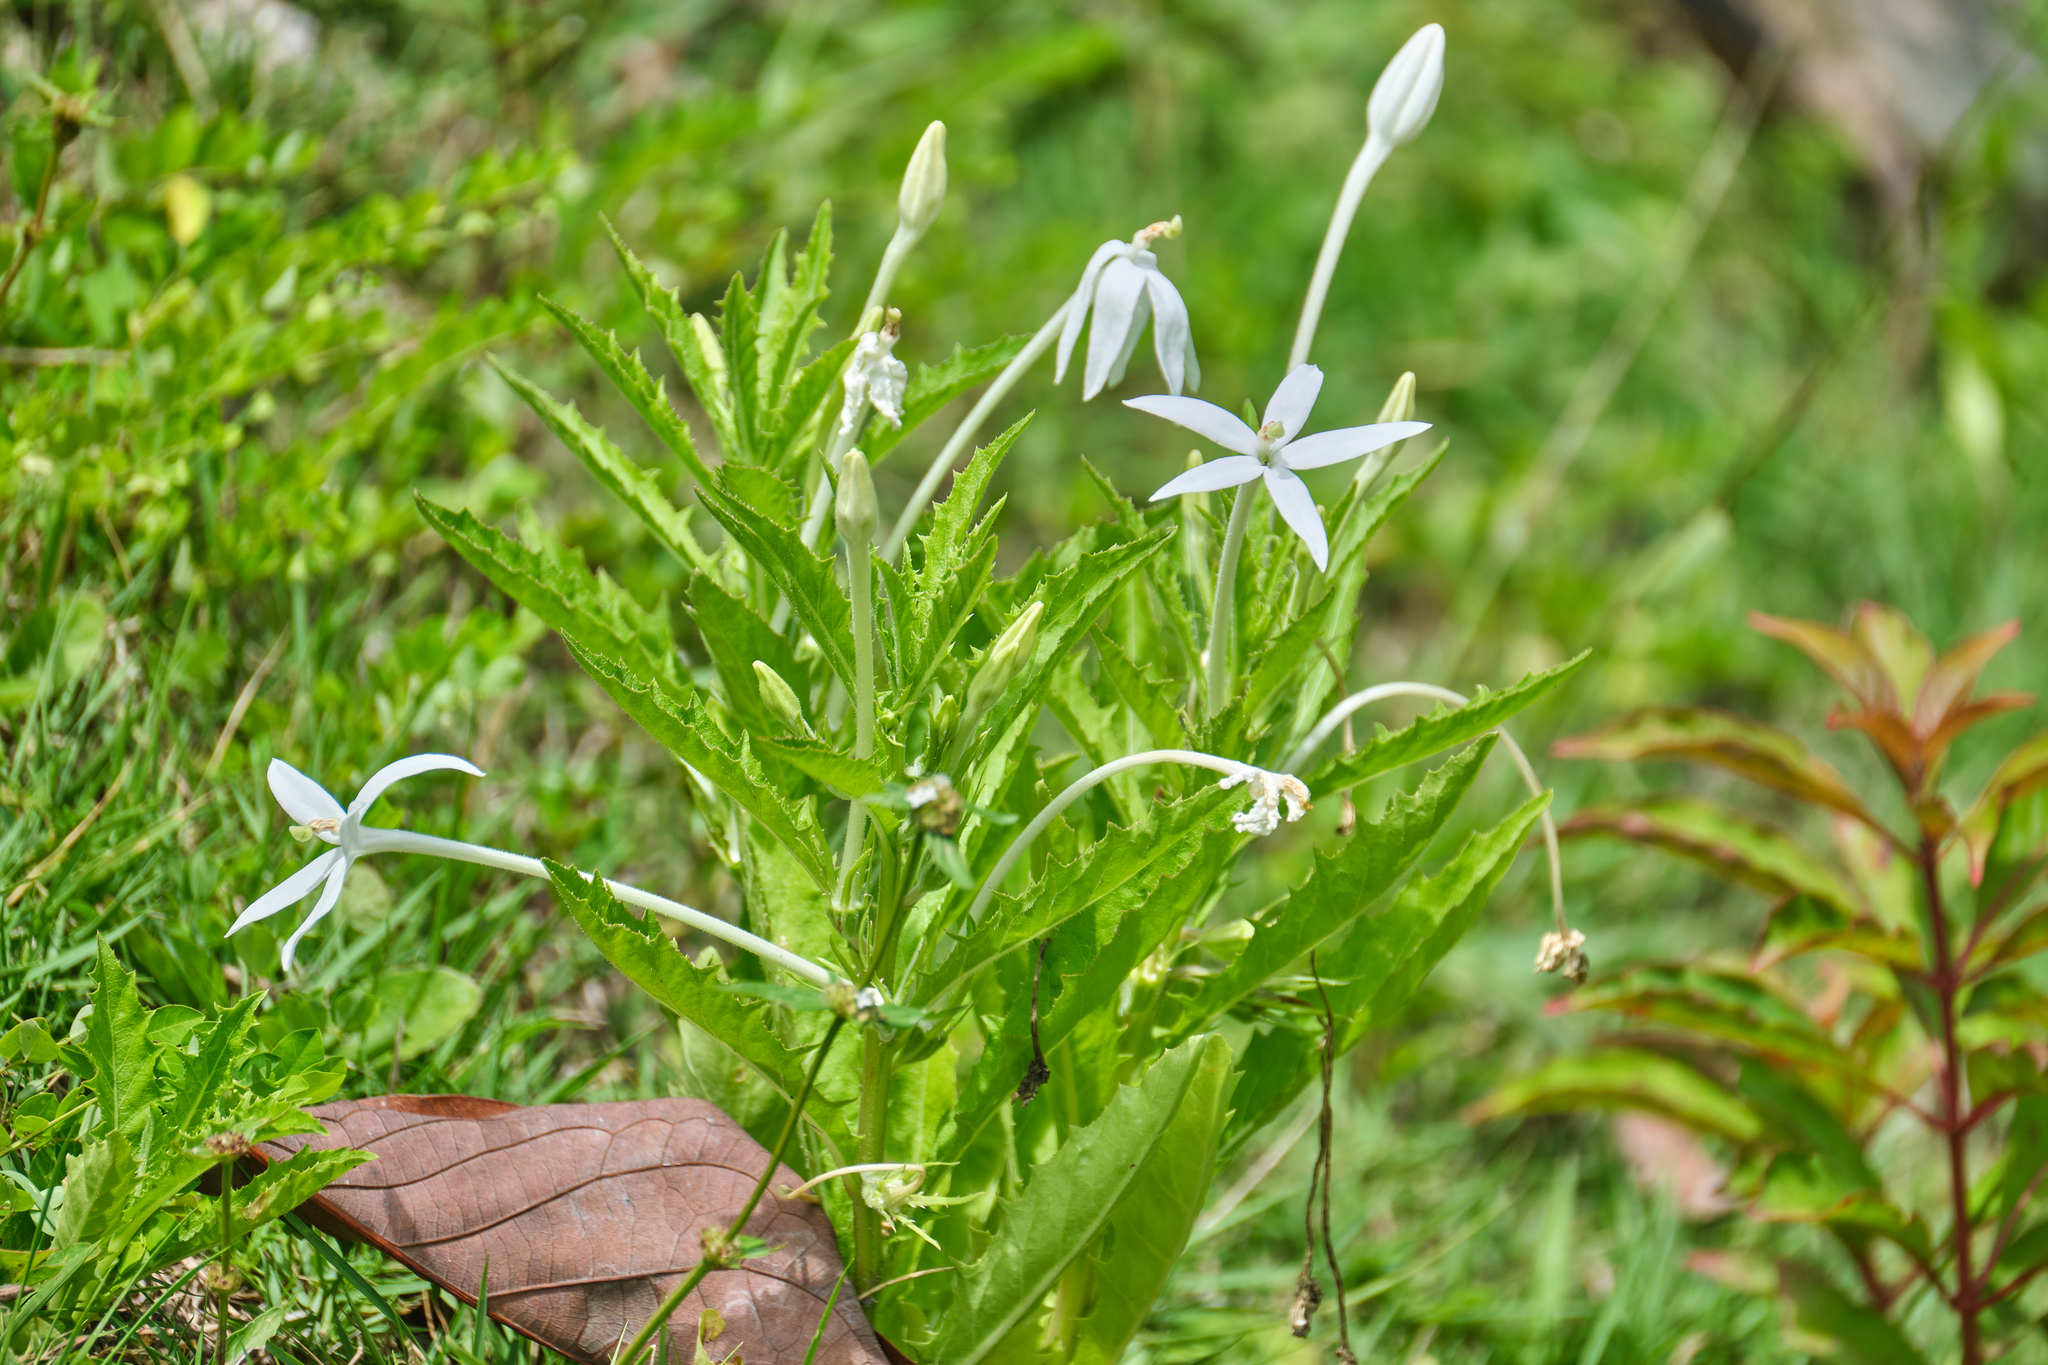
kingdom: Plantae
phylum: Tracheophyta
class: Magnoliopsida
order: Asterales
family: Campanulaceae
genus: Hippobroma
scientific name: Hippobroma longiflora
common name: Madamfate
